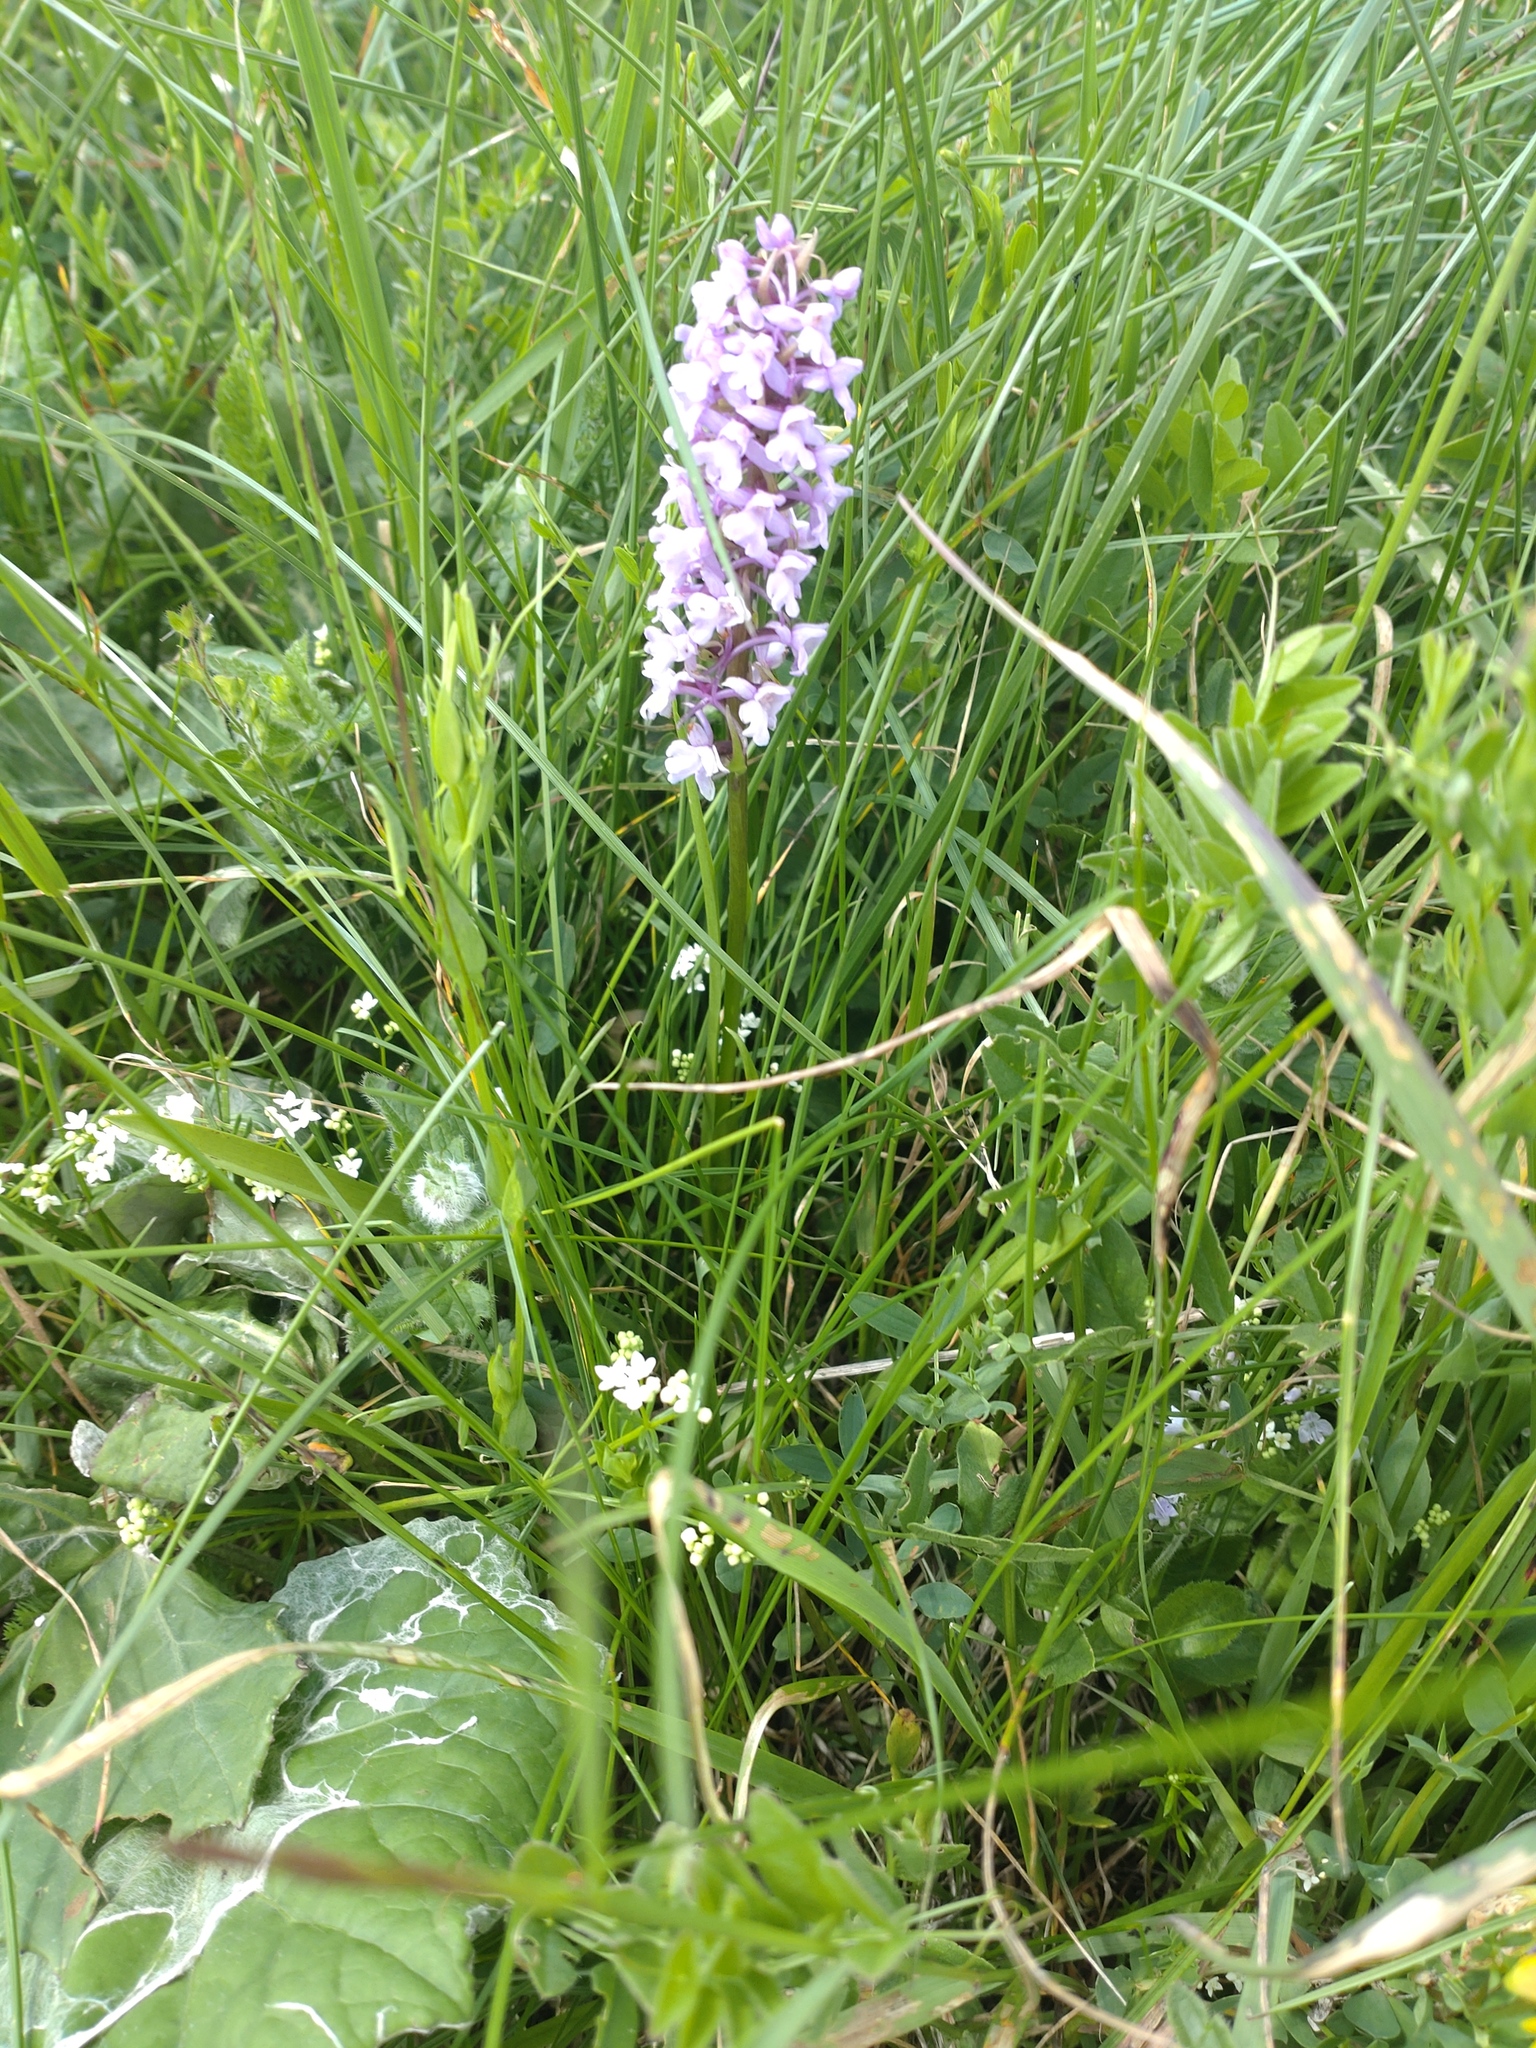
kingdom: Plantae
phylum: Tracheophyta
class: Liliopsida
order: Asparagales
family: Orchidaceae
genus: Gymnadenia
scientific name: Gymnadenia conopsea
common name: Fragrant orchid
